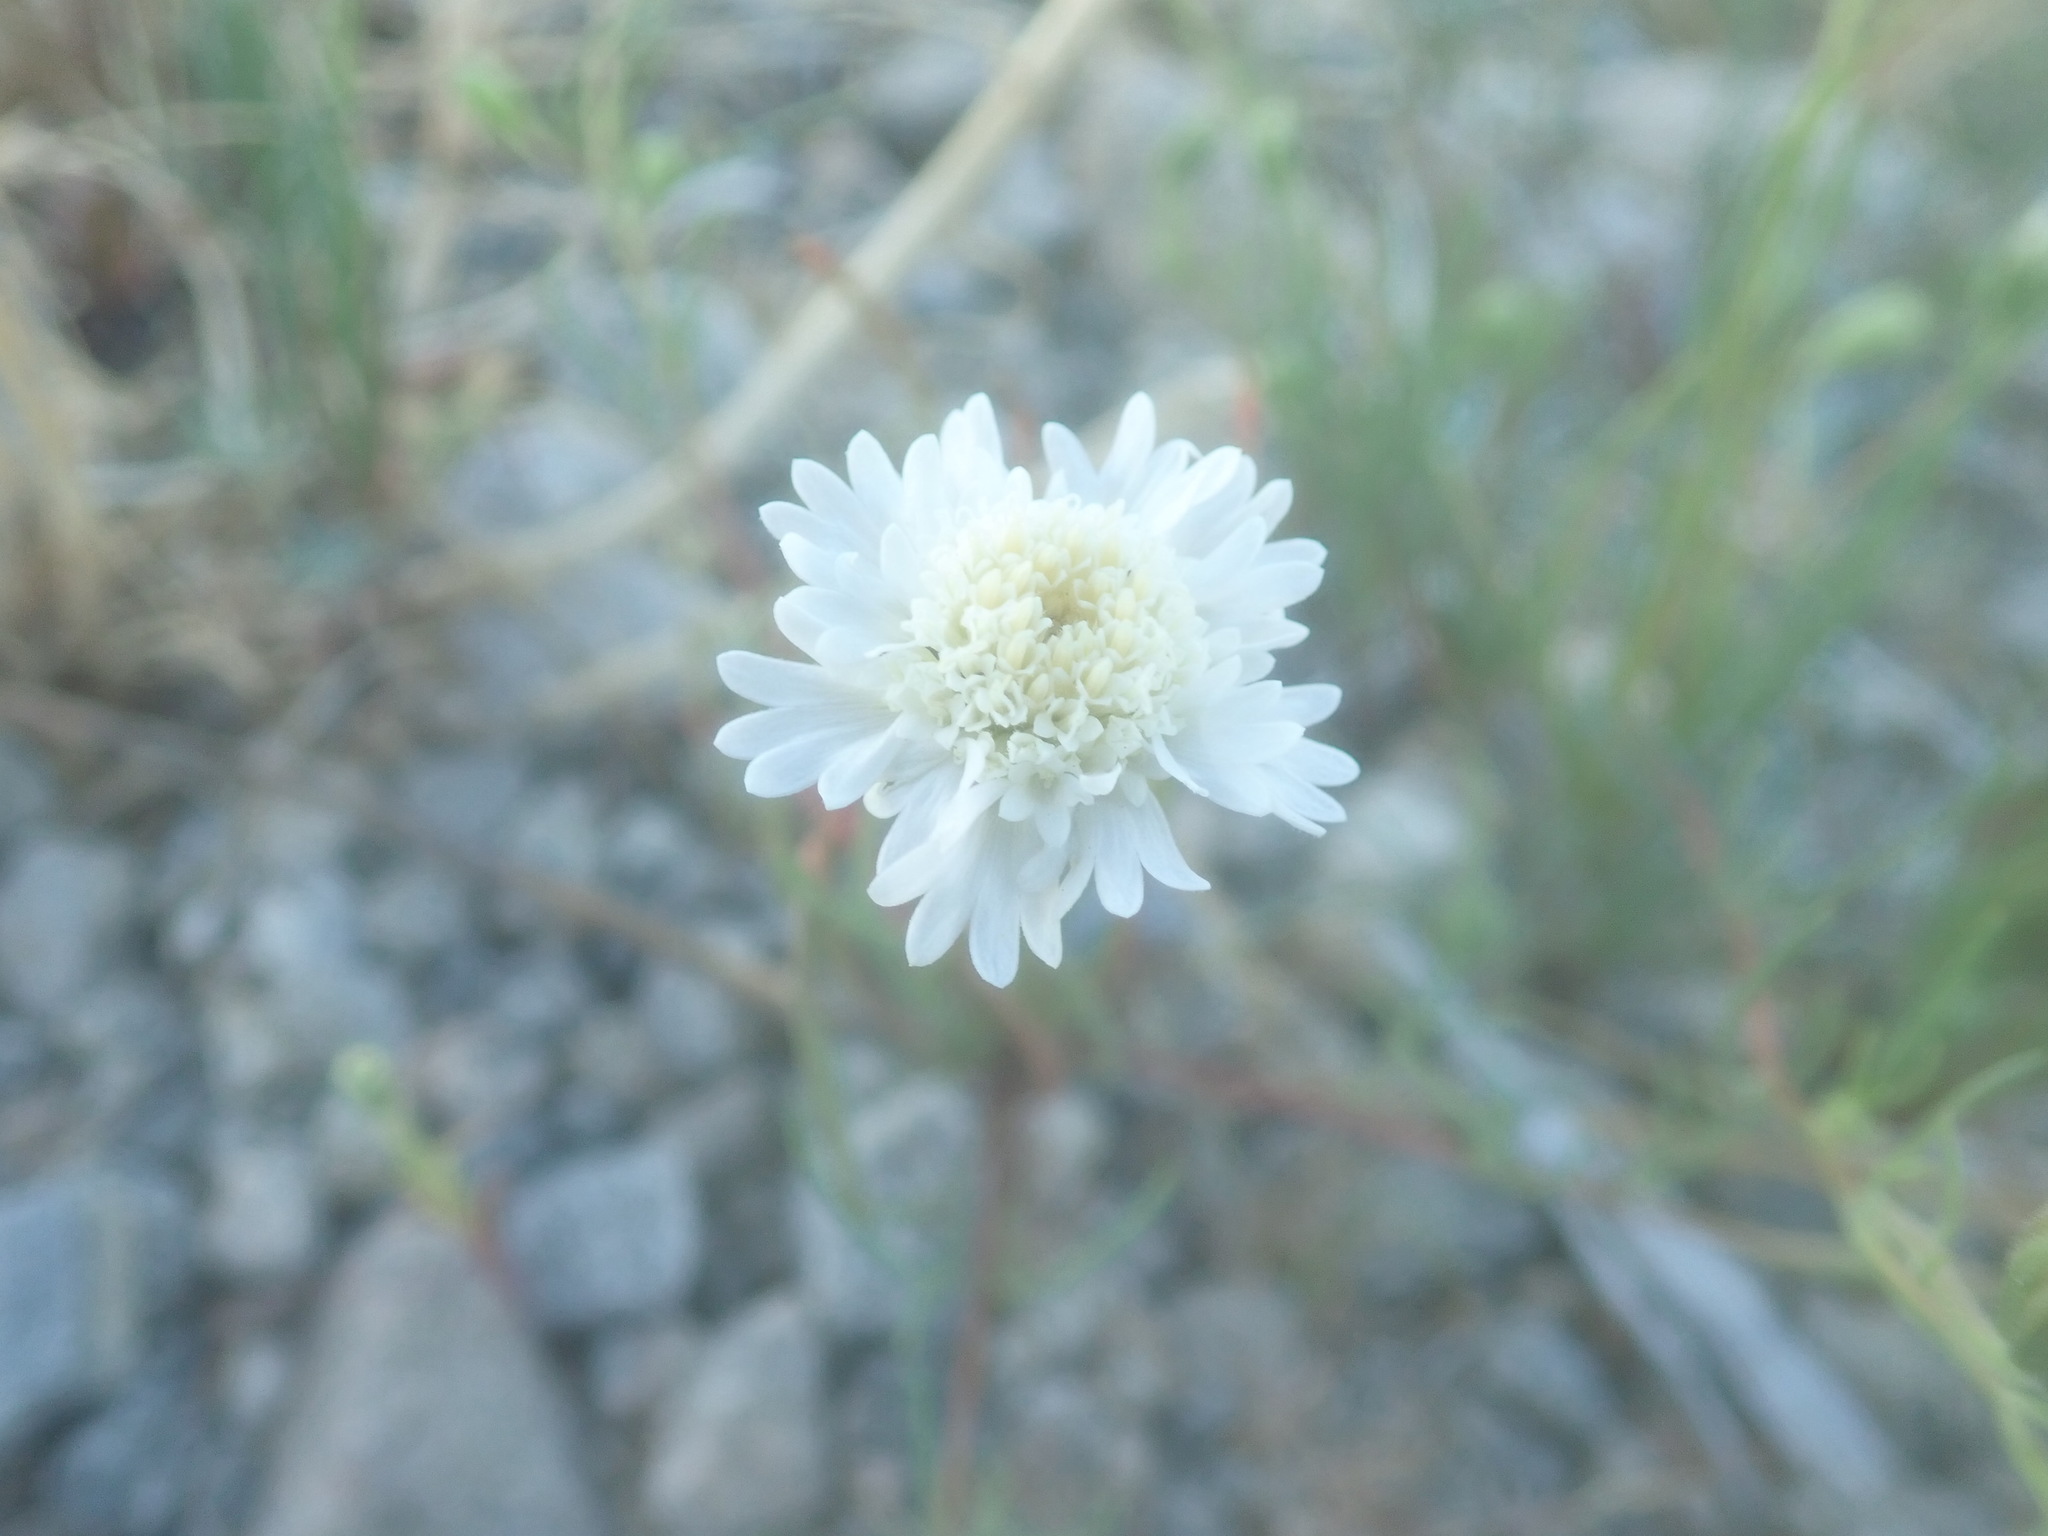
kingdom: Plantae
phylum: Tracheophyta
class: Magnoliopsida
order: Asterales
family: Asteraceae
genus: Chaenactis
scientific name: Chaenactis fremontii
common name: Fremont pincushion
